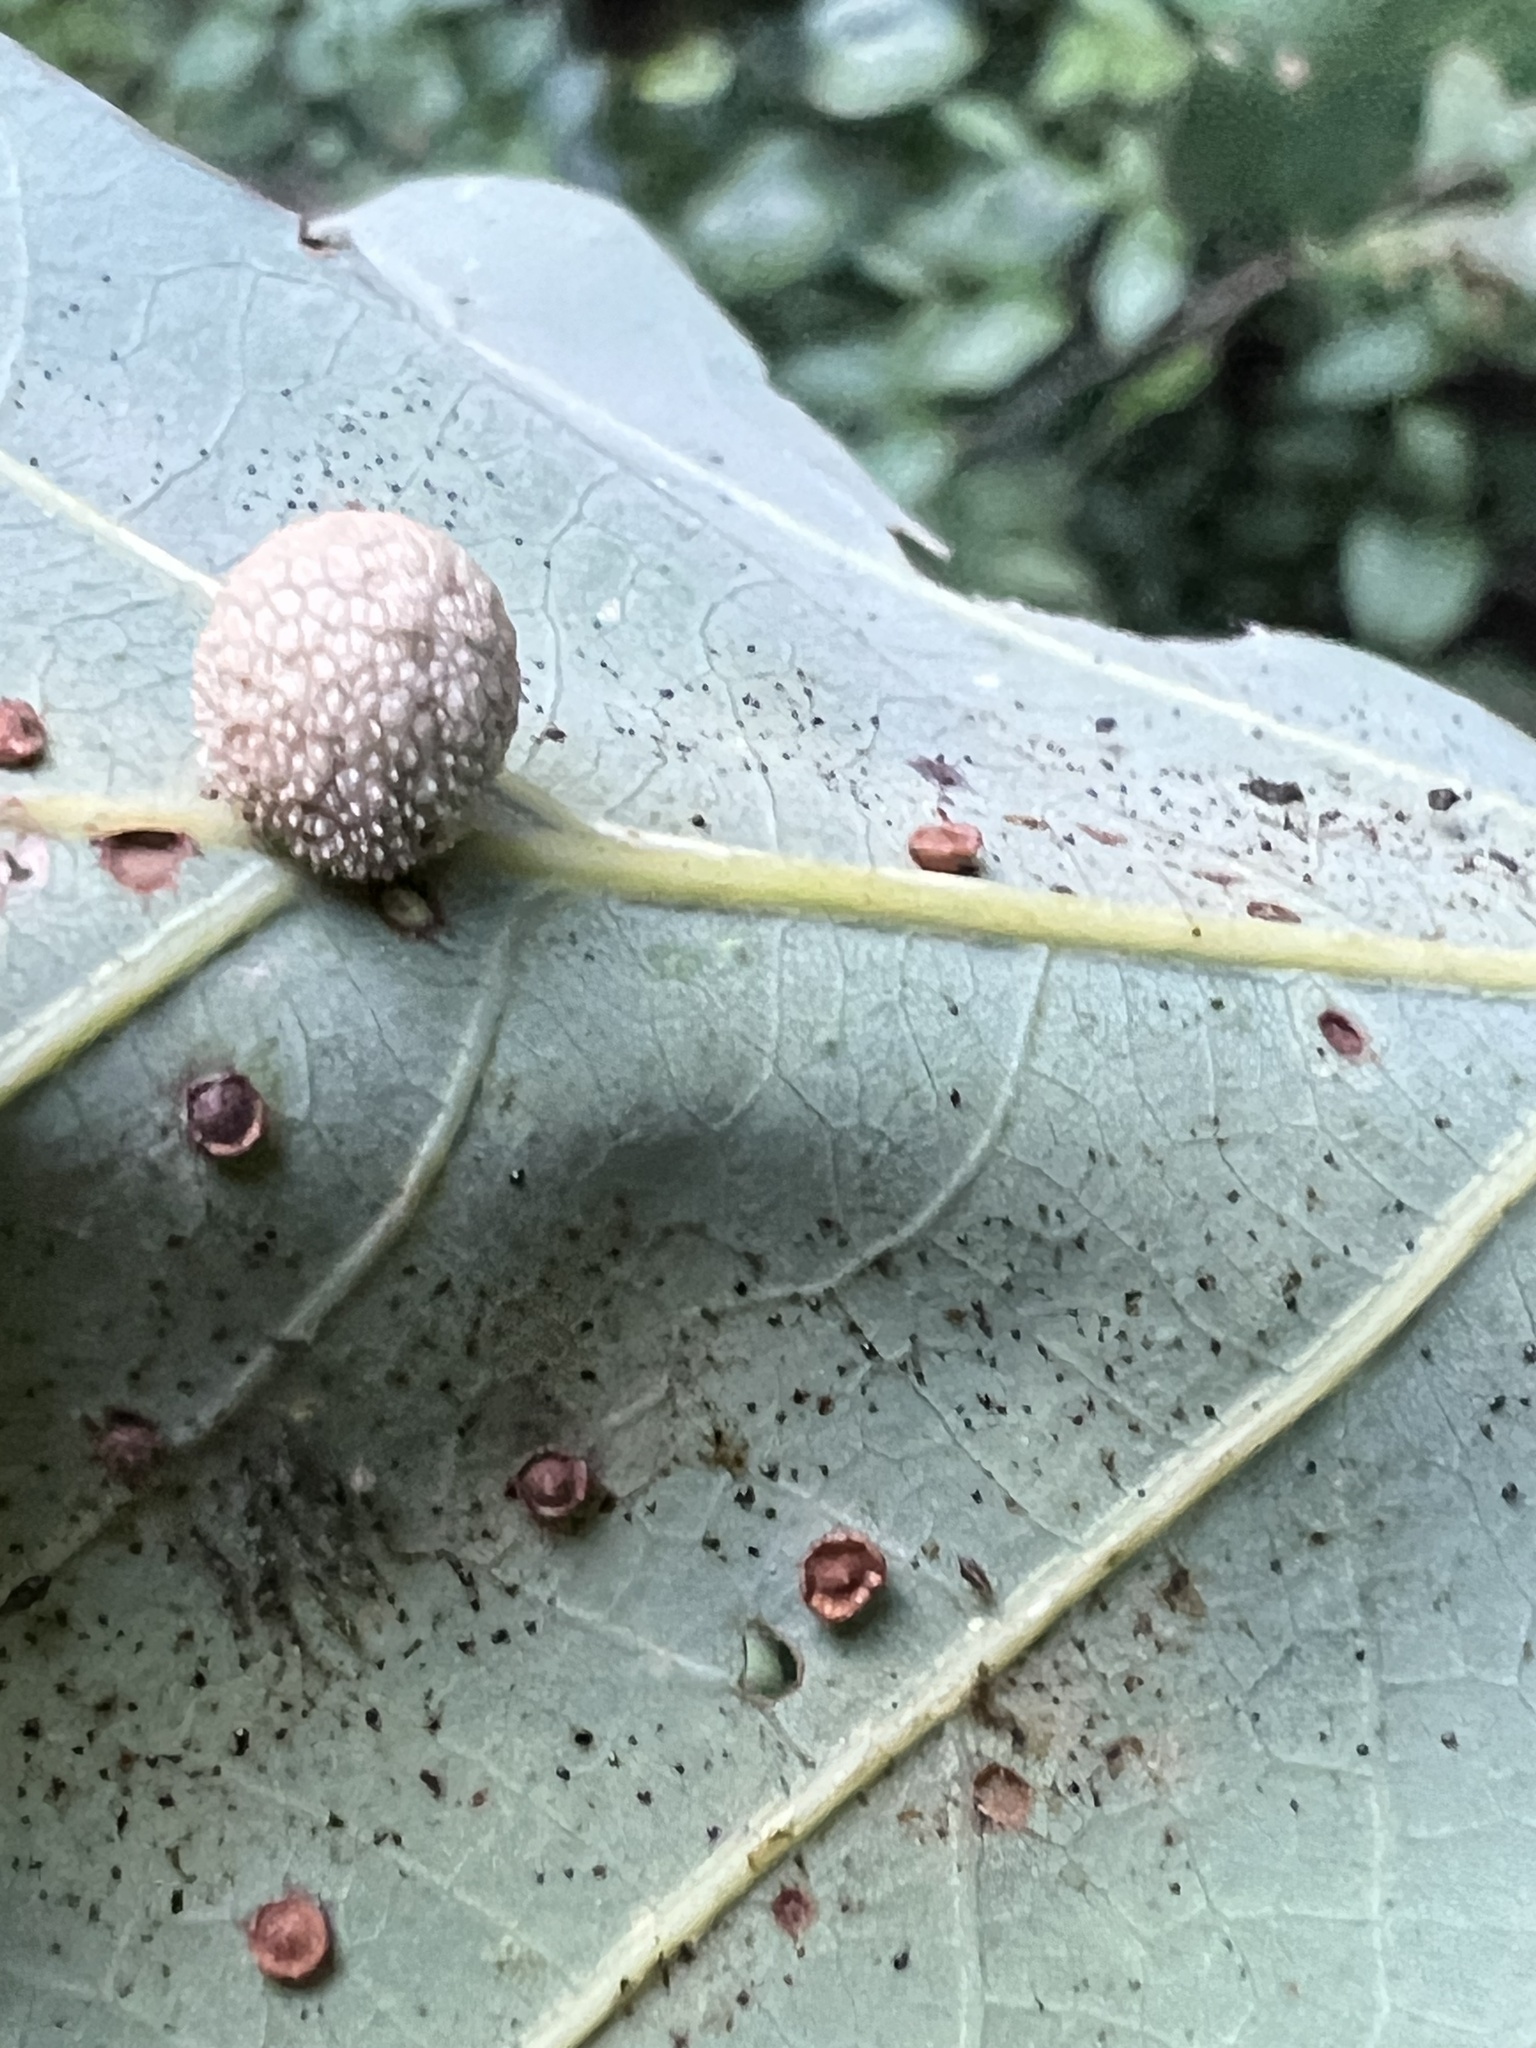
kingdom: Animalia
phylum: Arthropoda
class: Insecta
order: Hymenoptera
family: Cynipidae
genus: Acraspis
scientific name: Acraspis
